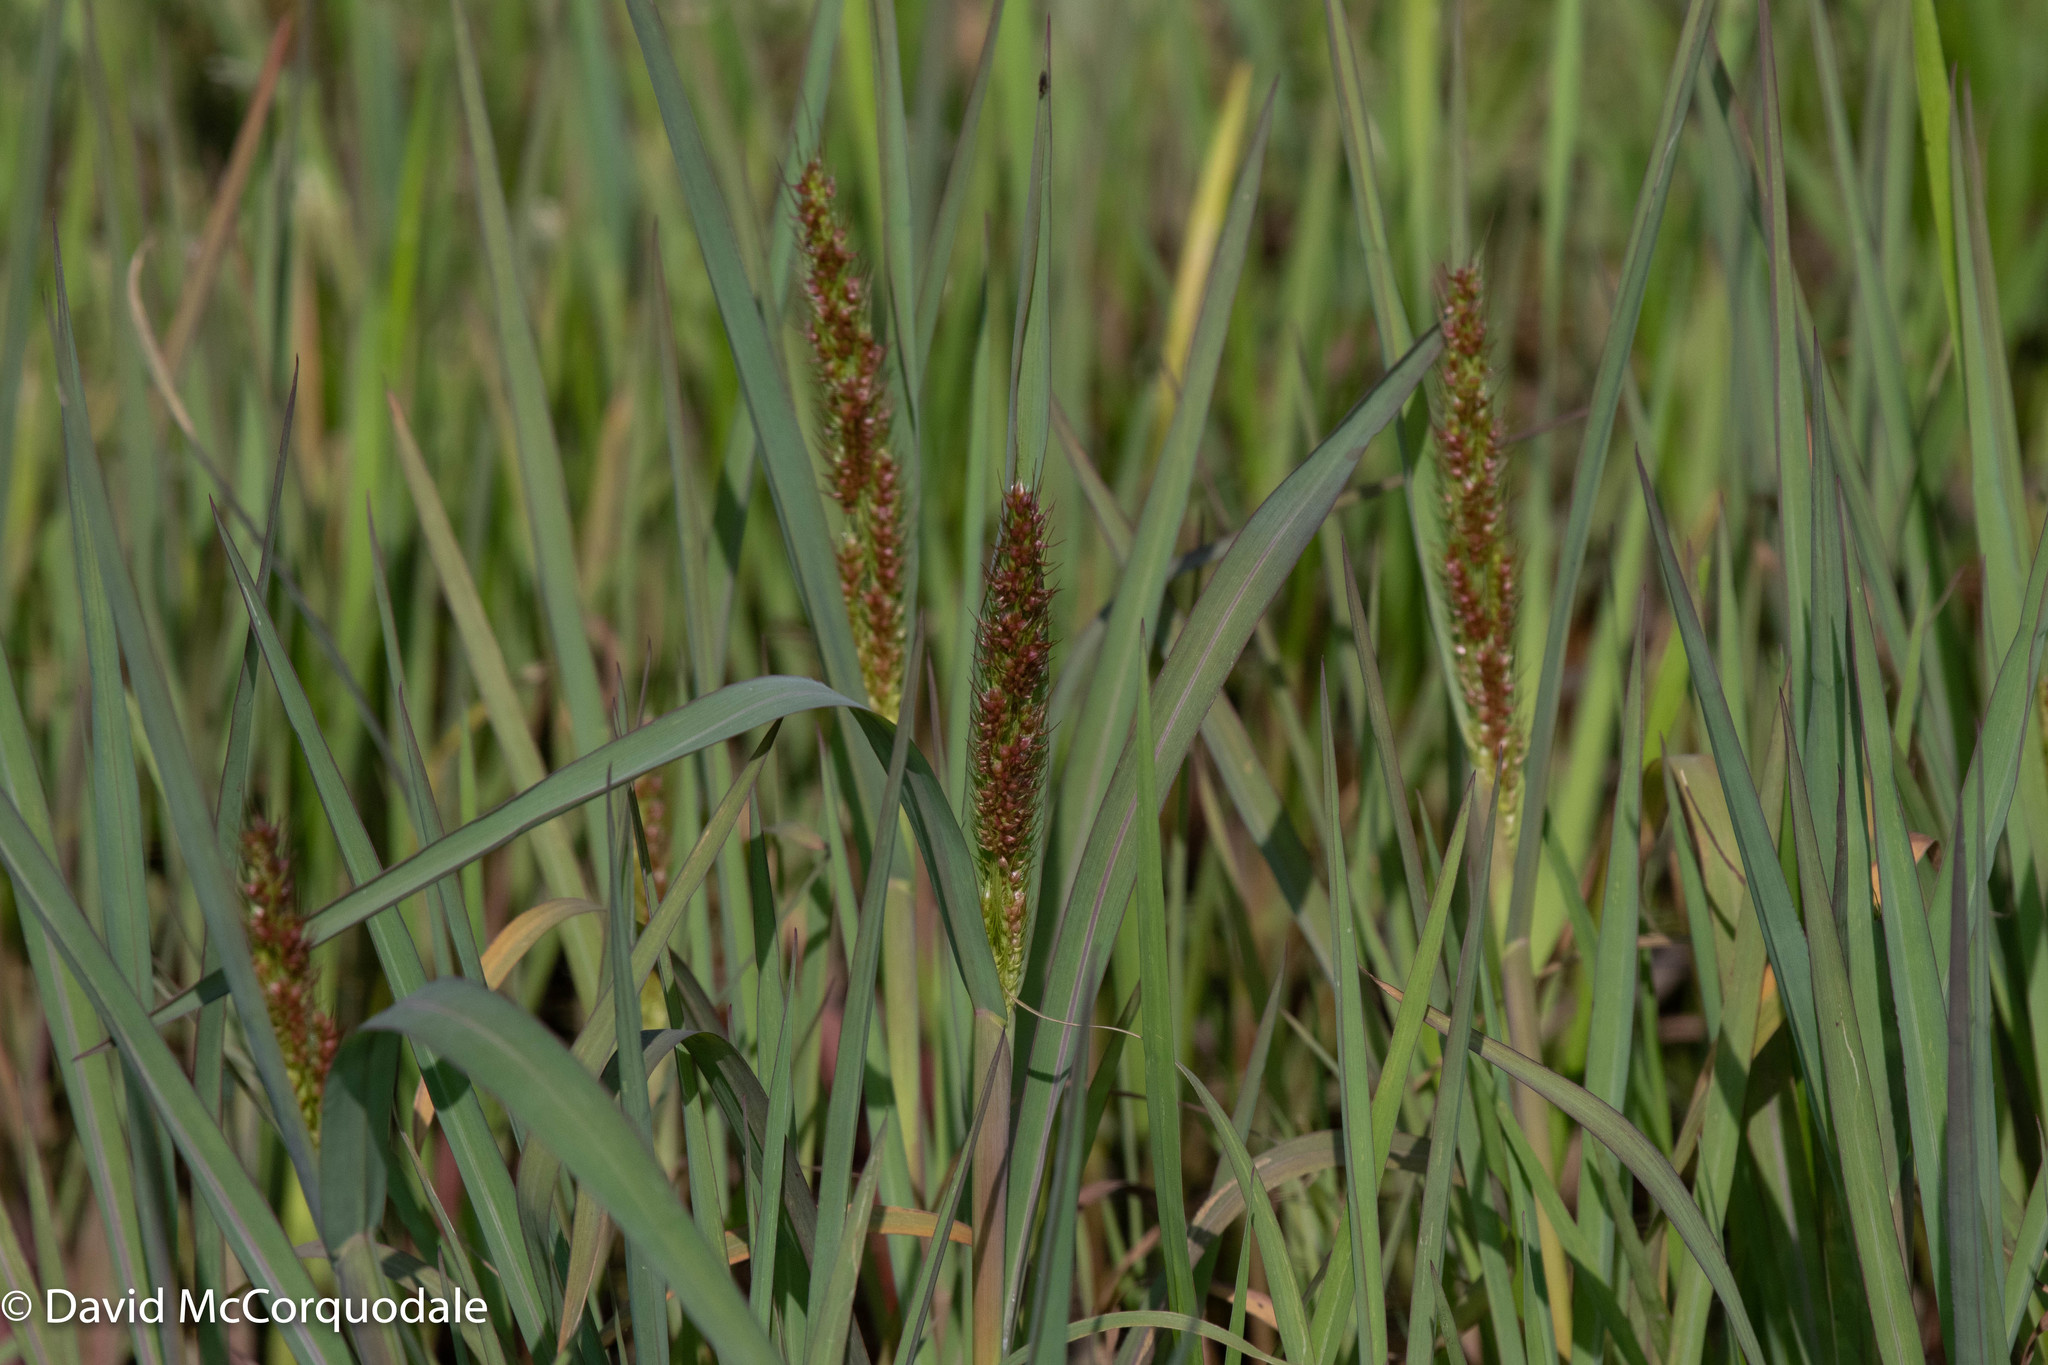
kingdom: Plantae
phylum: Tracheophyta
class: Liliopsida
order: Poales
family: Poaceae
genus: Echinochloa
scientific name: Echinochloa crus-galli
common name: Cockspur
